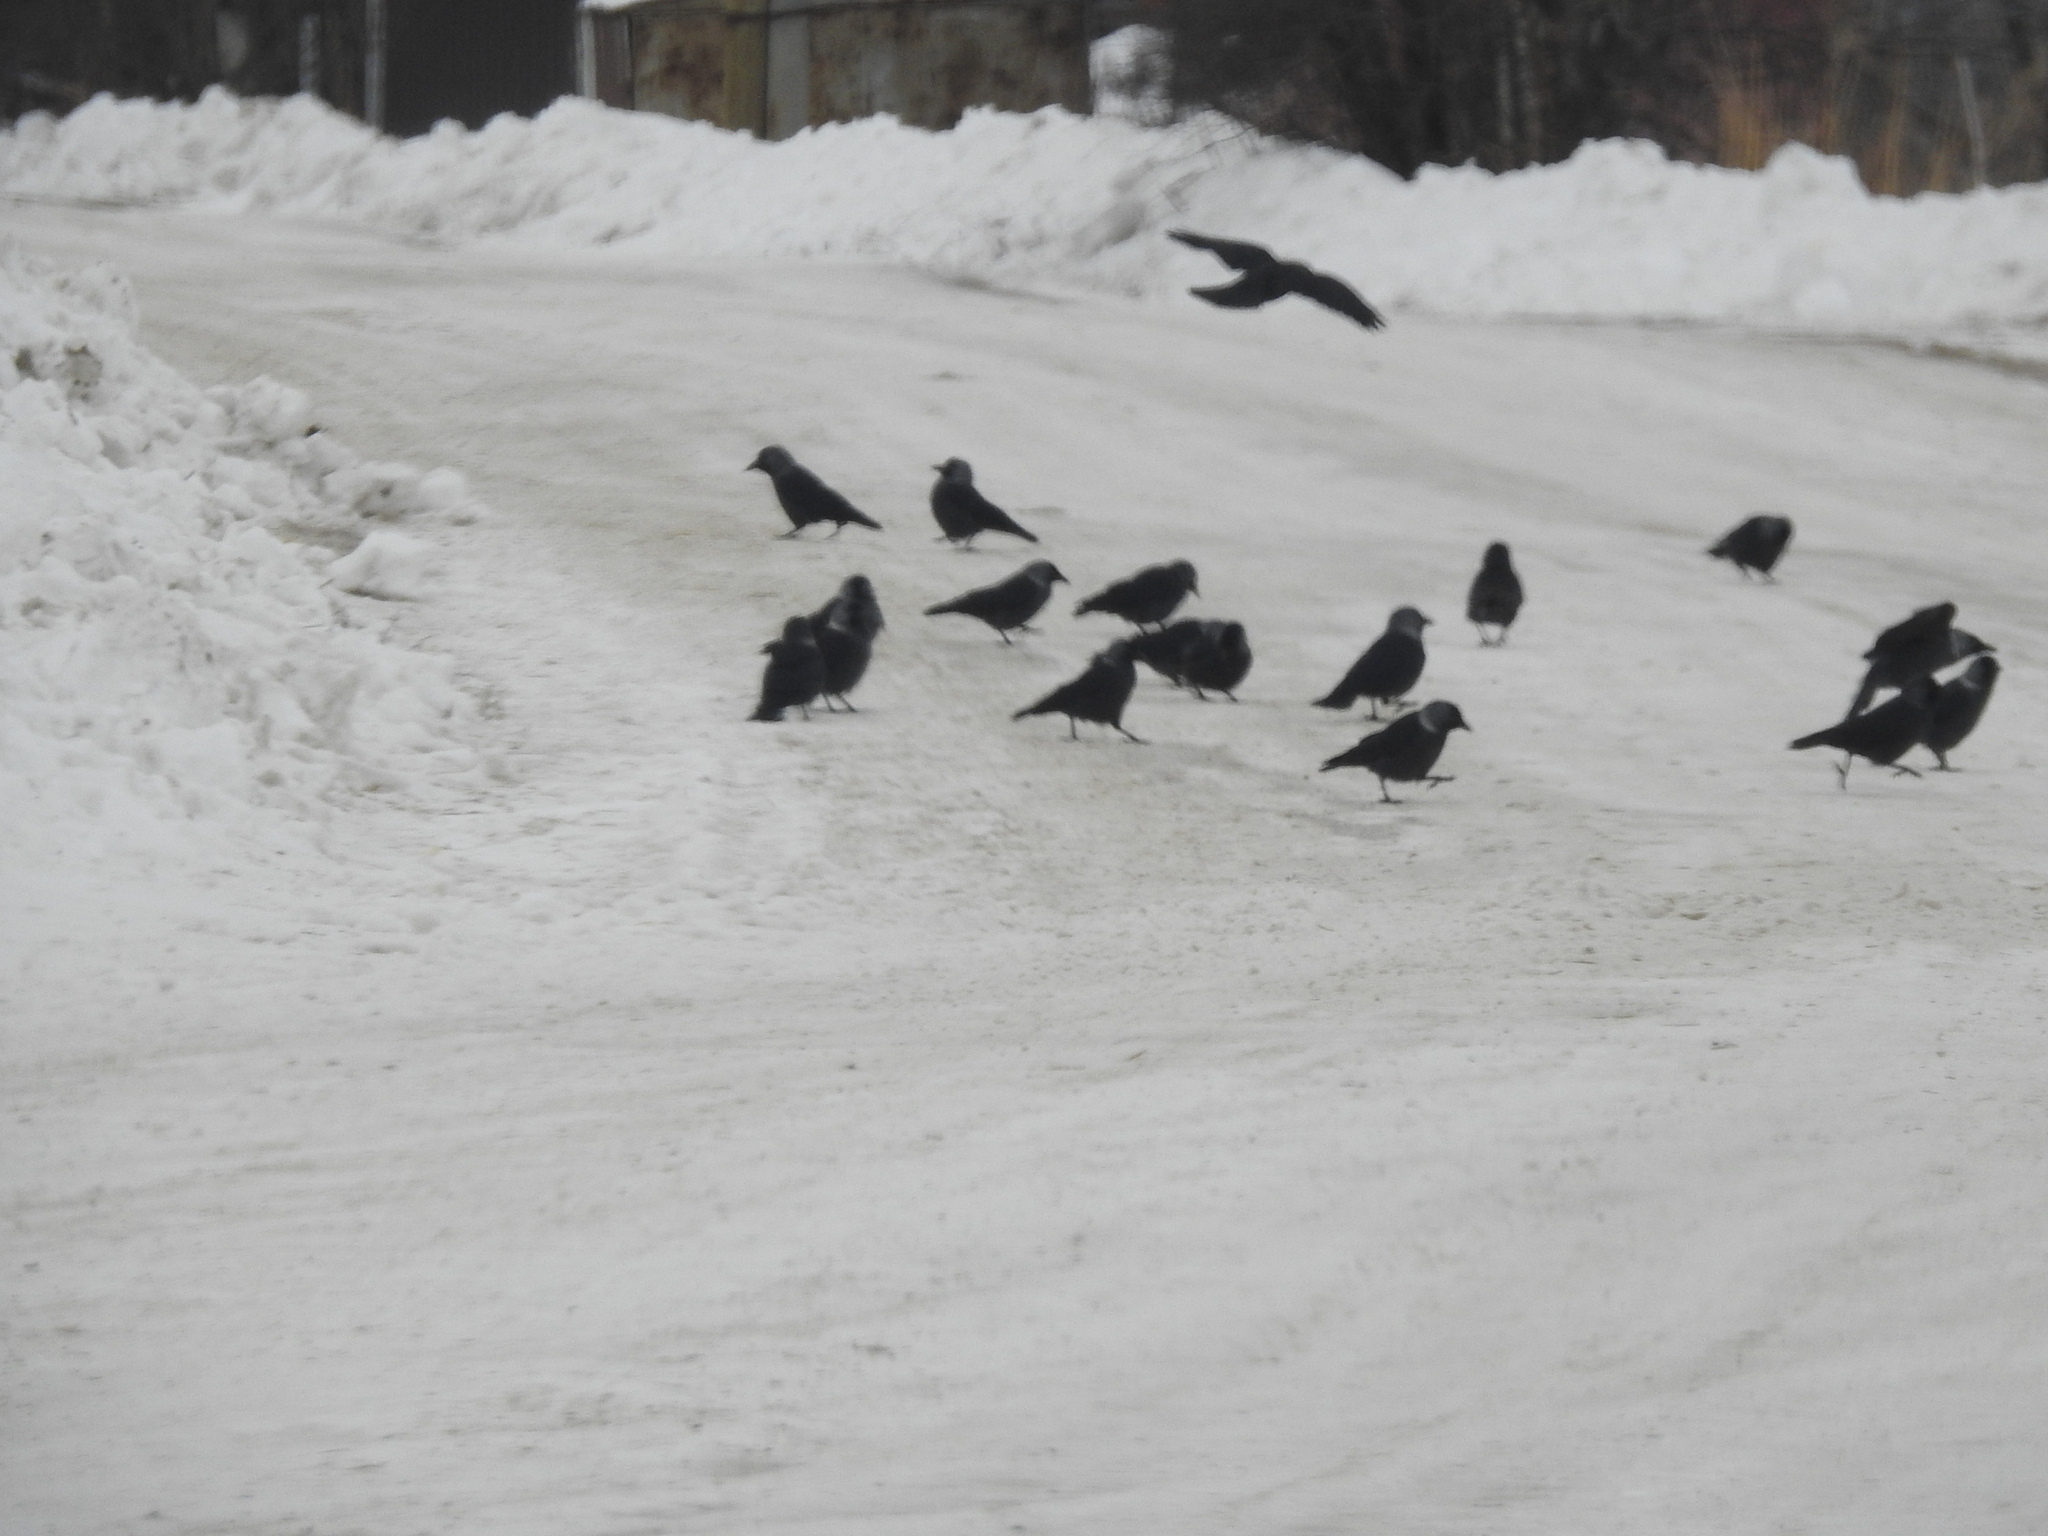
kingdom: Animalia
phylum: Chordata
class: Aves
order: Passeriformes
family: Corvidae
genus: Coloeus
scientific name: Coloeus monedula
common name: Western jackdaw
